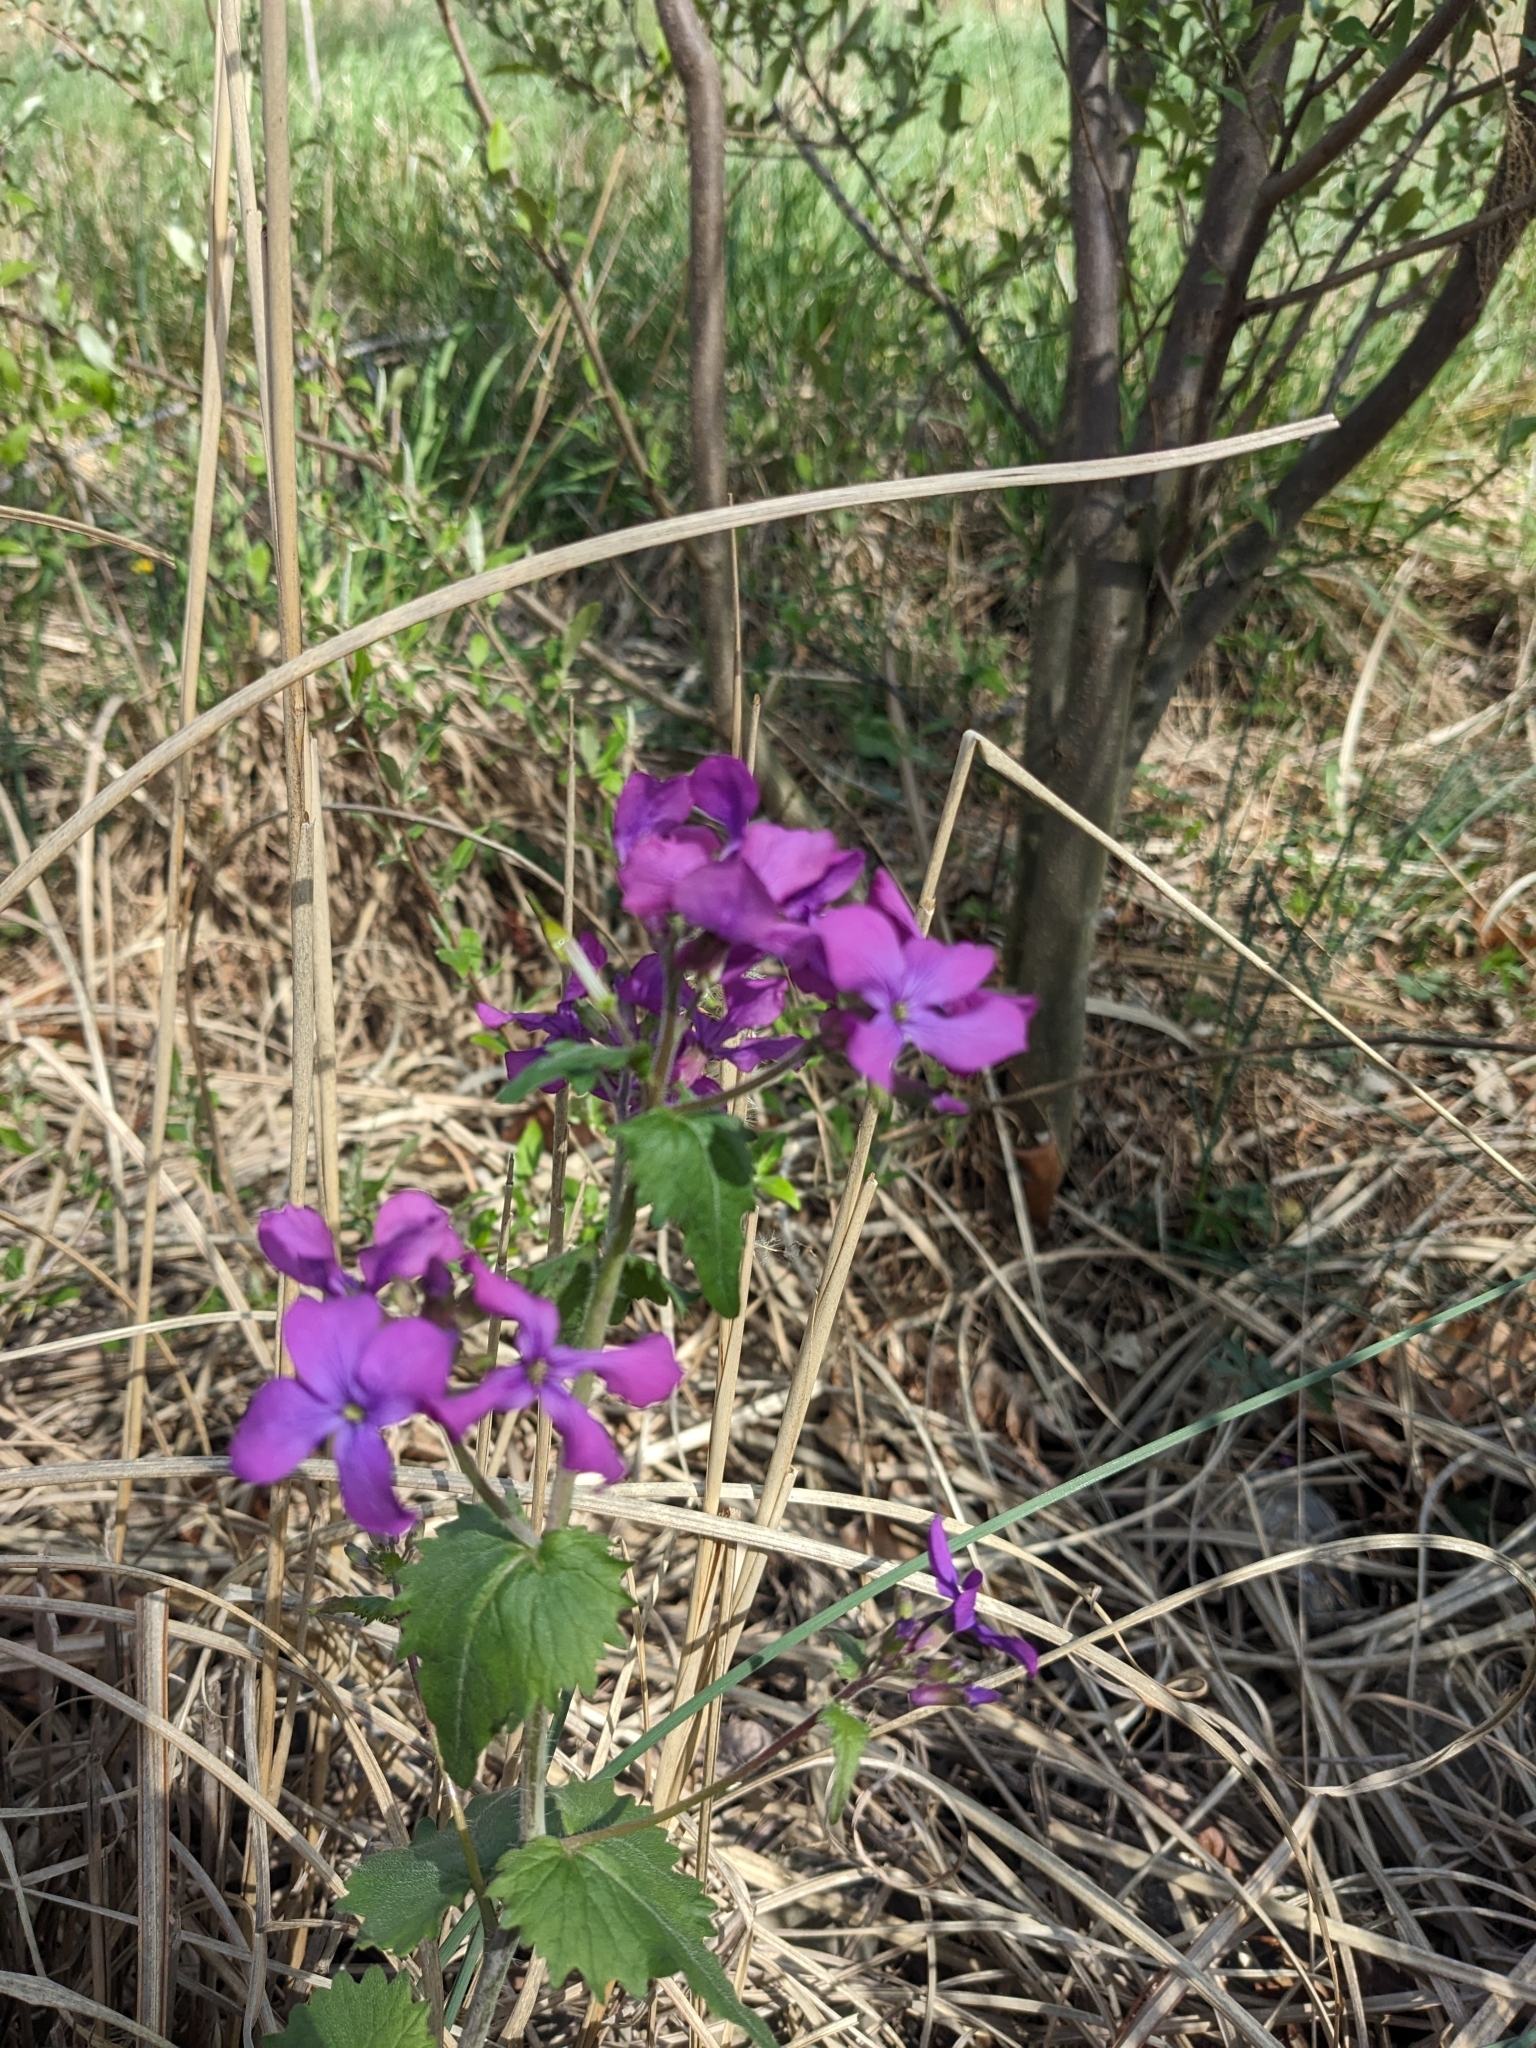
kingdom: Plantae
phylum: Tracheophyta
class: Magnoliopsida
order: Brassicales
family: Brassicaceae
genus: Lunaria
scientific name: Lunaria annua
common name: Honesty
